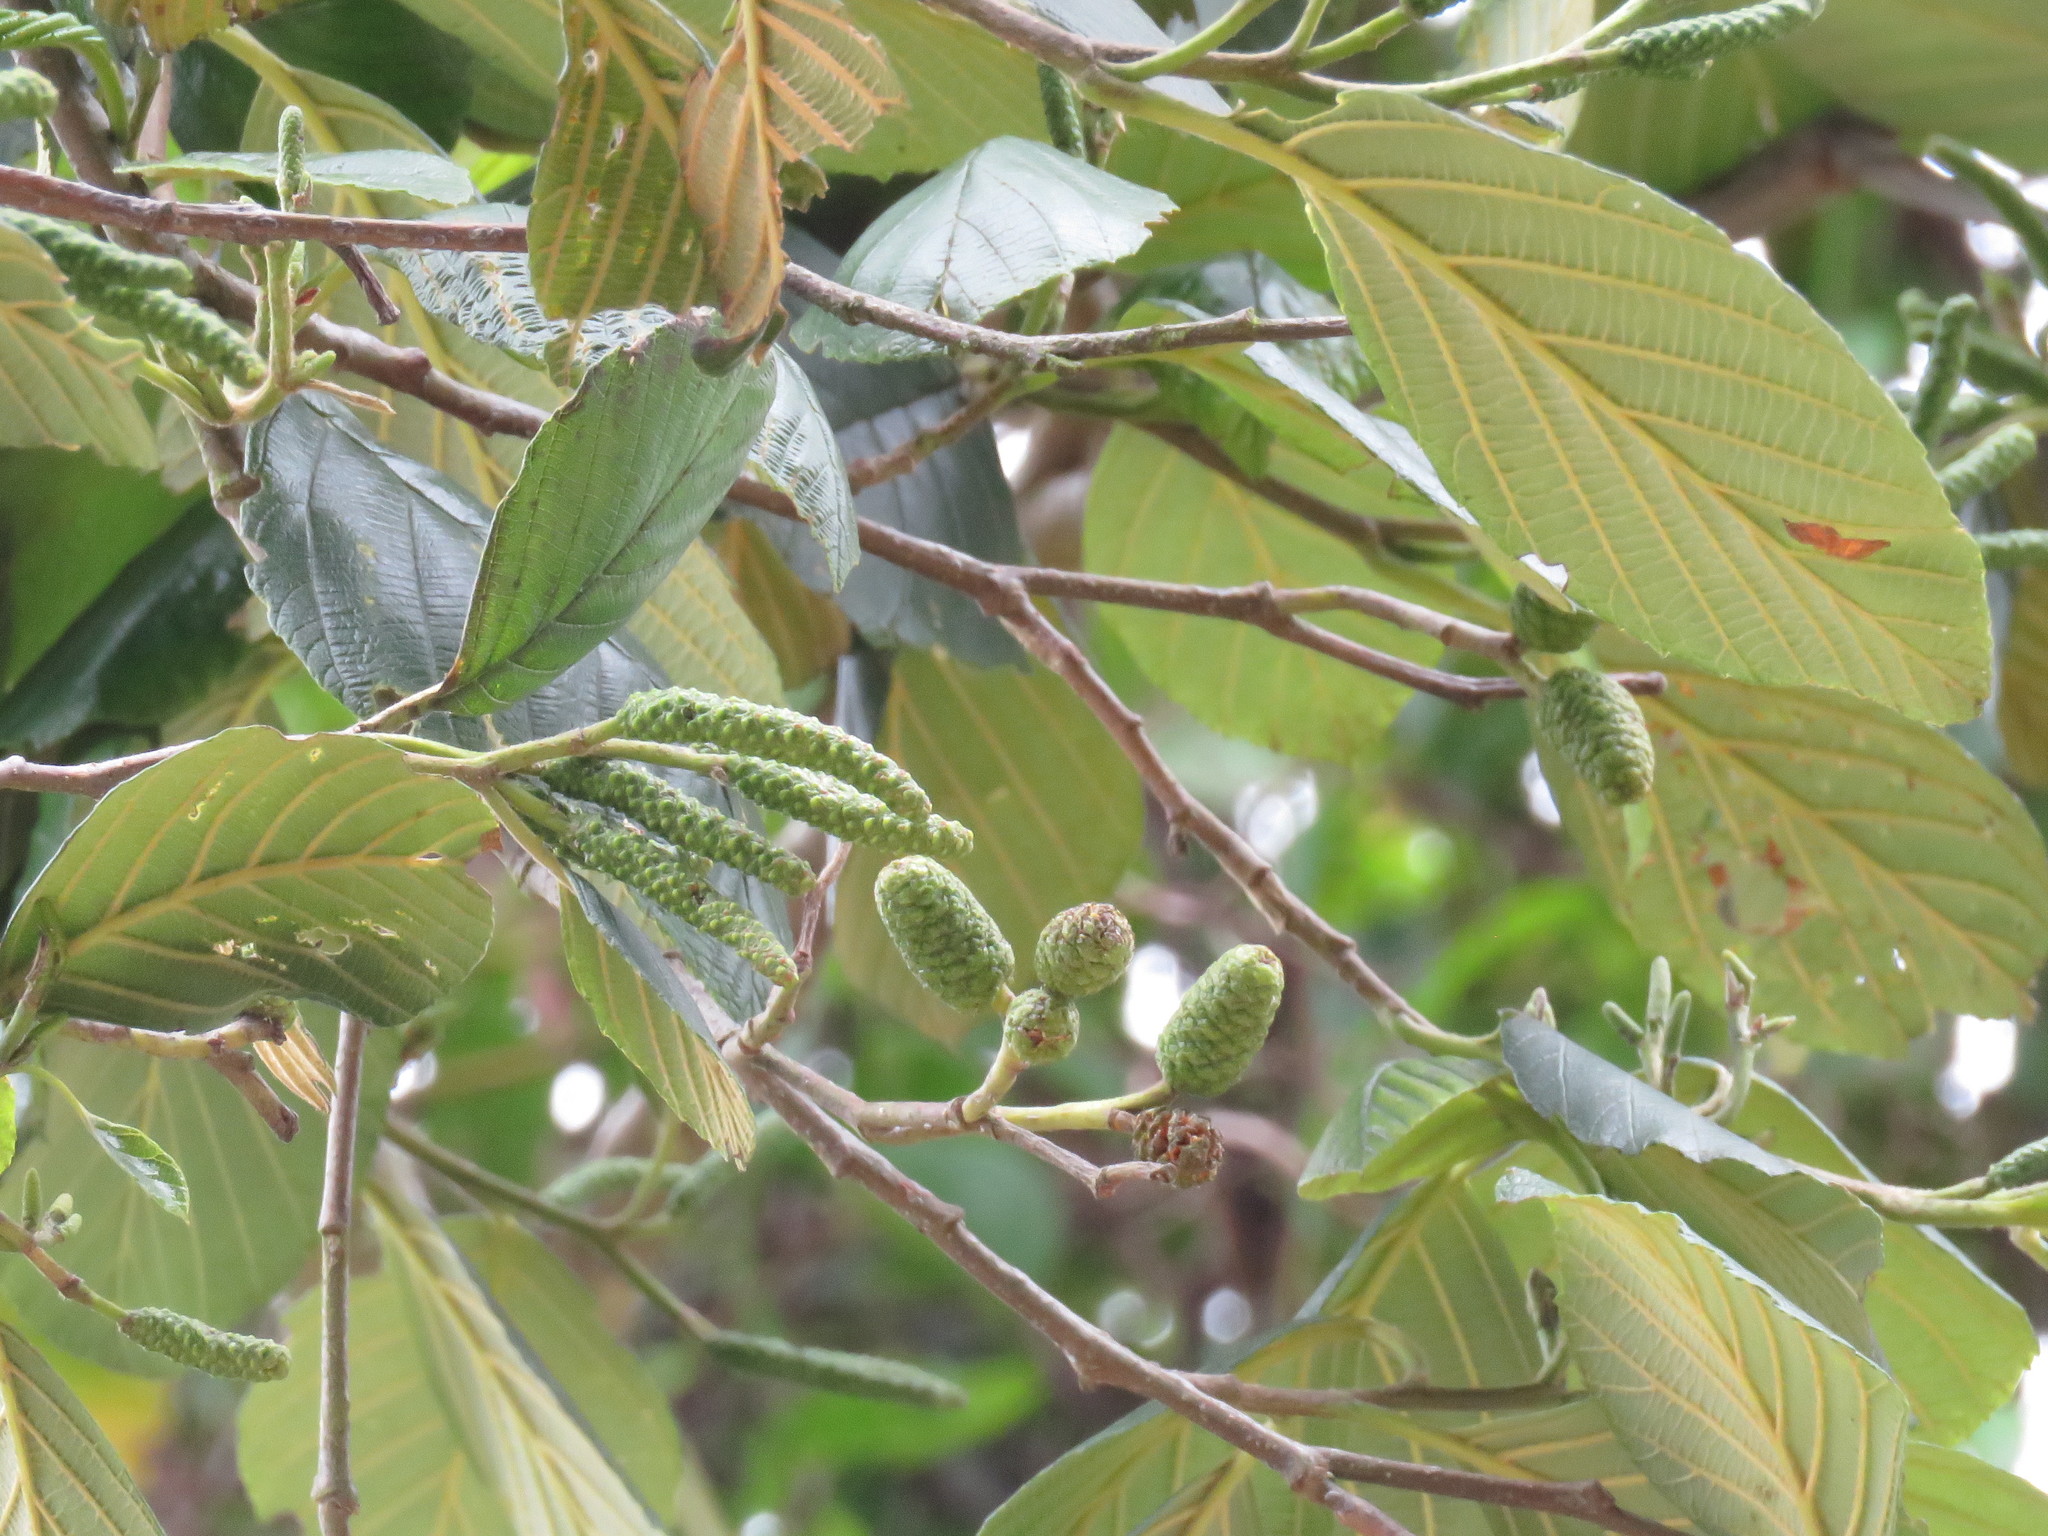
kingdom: Plantae
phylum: Tracheophyta
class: Magnoliopsida
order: Fagales
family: Betulaceae
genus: Alnus
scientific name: Alnus acuminata
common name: Alder
